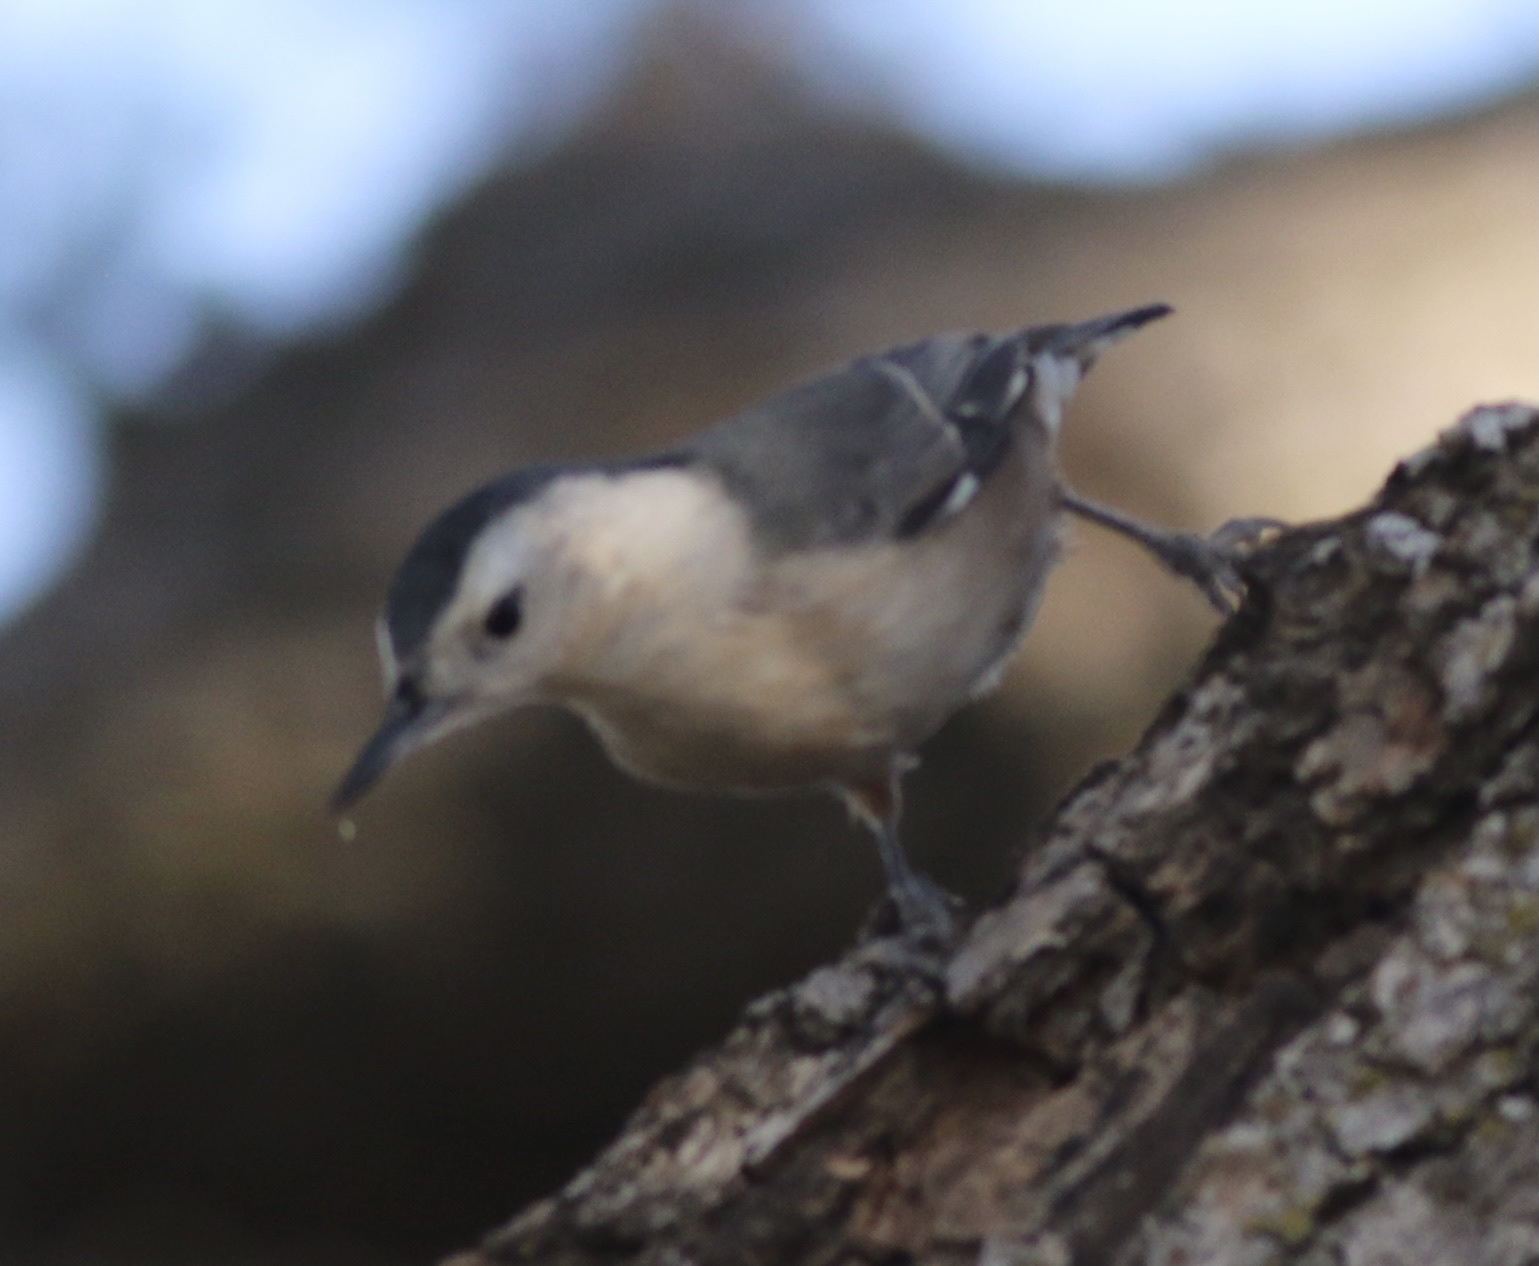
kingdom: Animalia
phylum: Chordata
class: Aves
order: Passeriformes
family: Sittidae
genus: Sitta
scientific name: Sitta carolinensis
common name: White-breasted nuthatch
